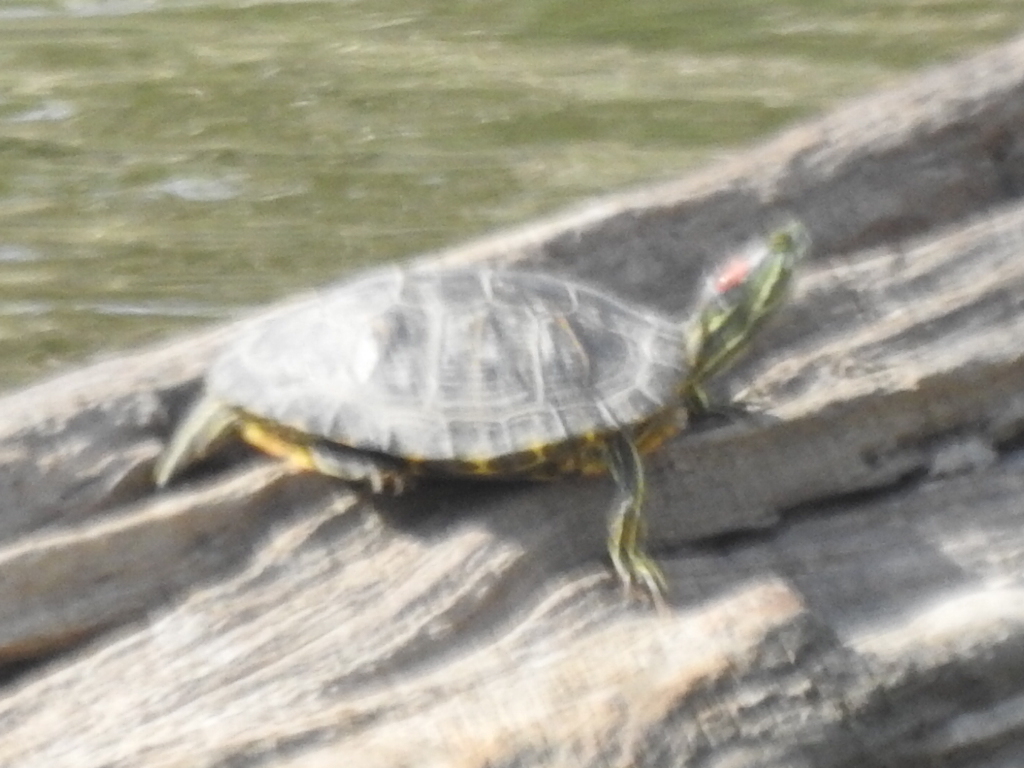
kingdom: Animalia
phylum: Chordata
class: Testudines
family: Emydidae
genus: Trachemys
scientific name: Trachemys scripta
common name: Slider
